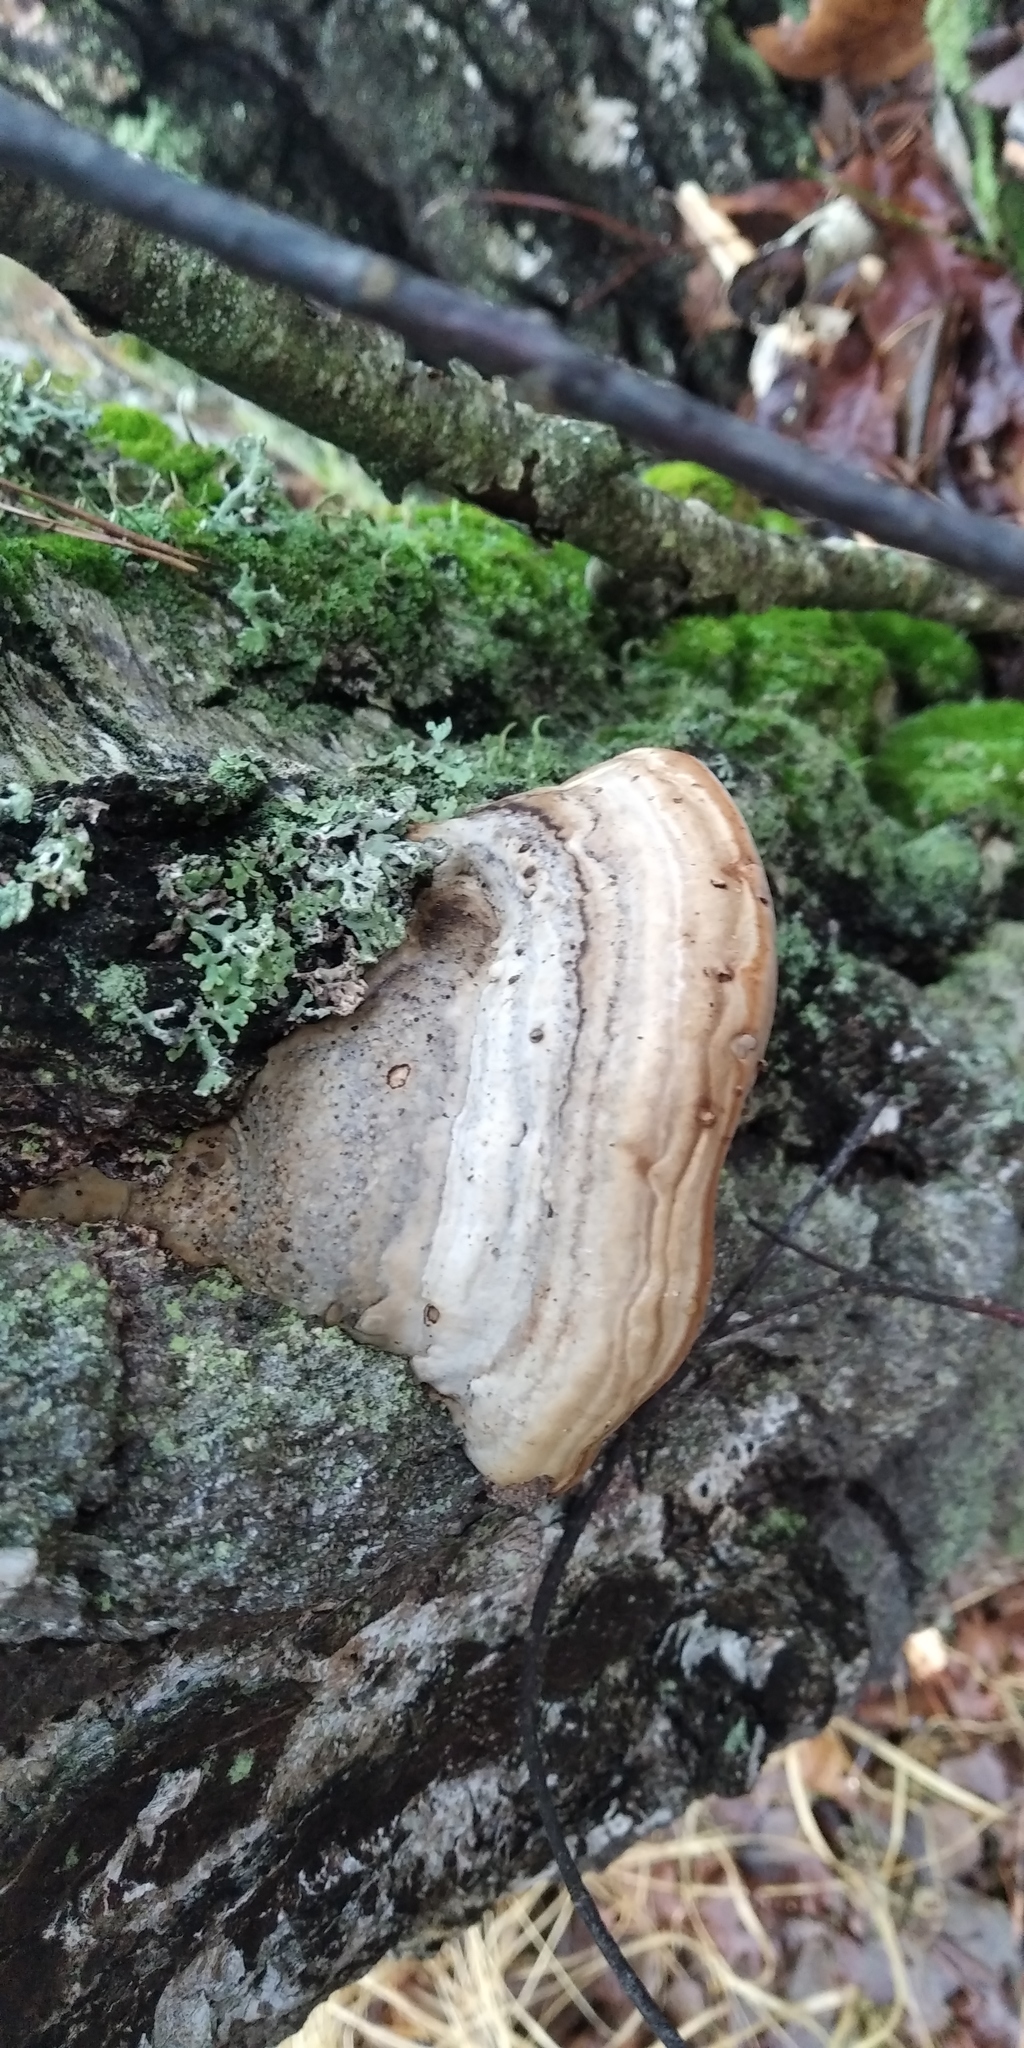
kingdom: Fungi
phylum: Basidiomycota
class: Agaricomycetes
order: Polyporales
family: Polyporaceae
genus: Fomes
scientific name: Fomes fomentarius
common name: Hoof fungus
